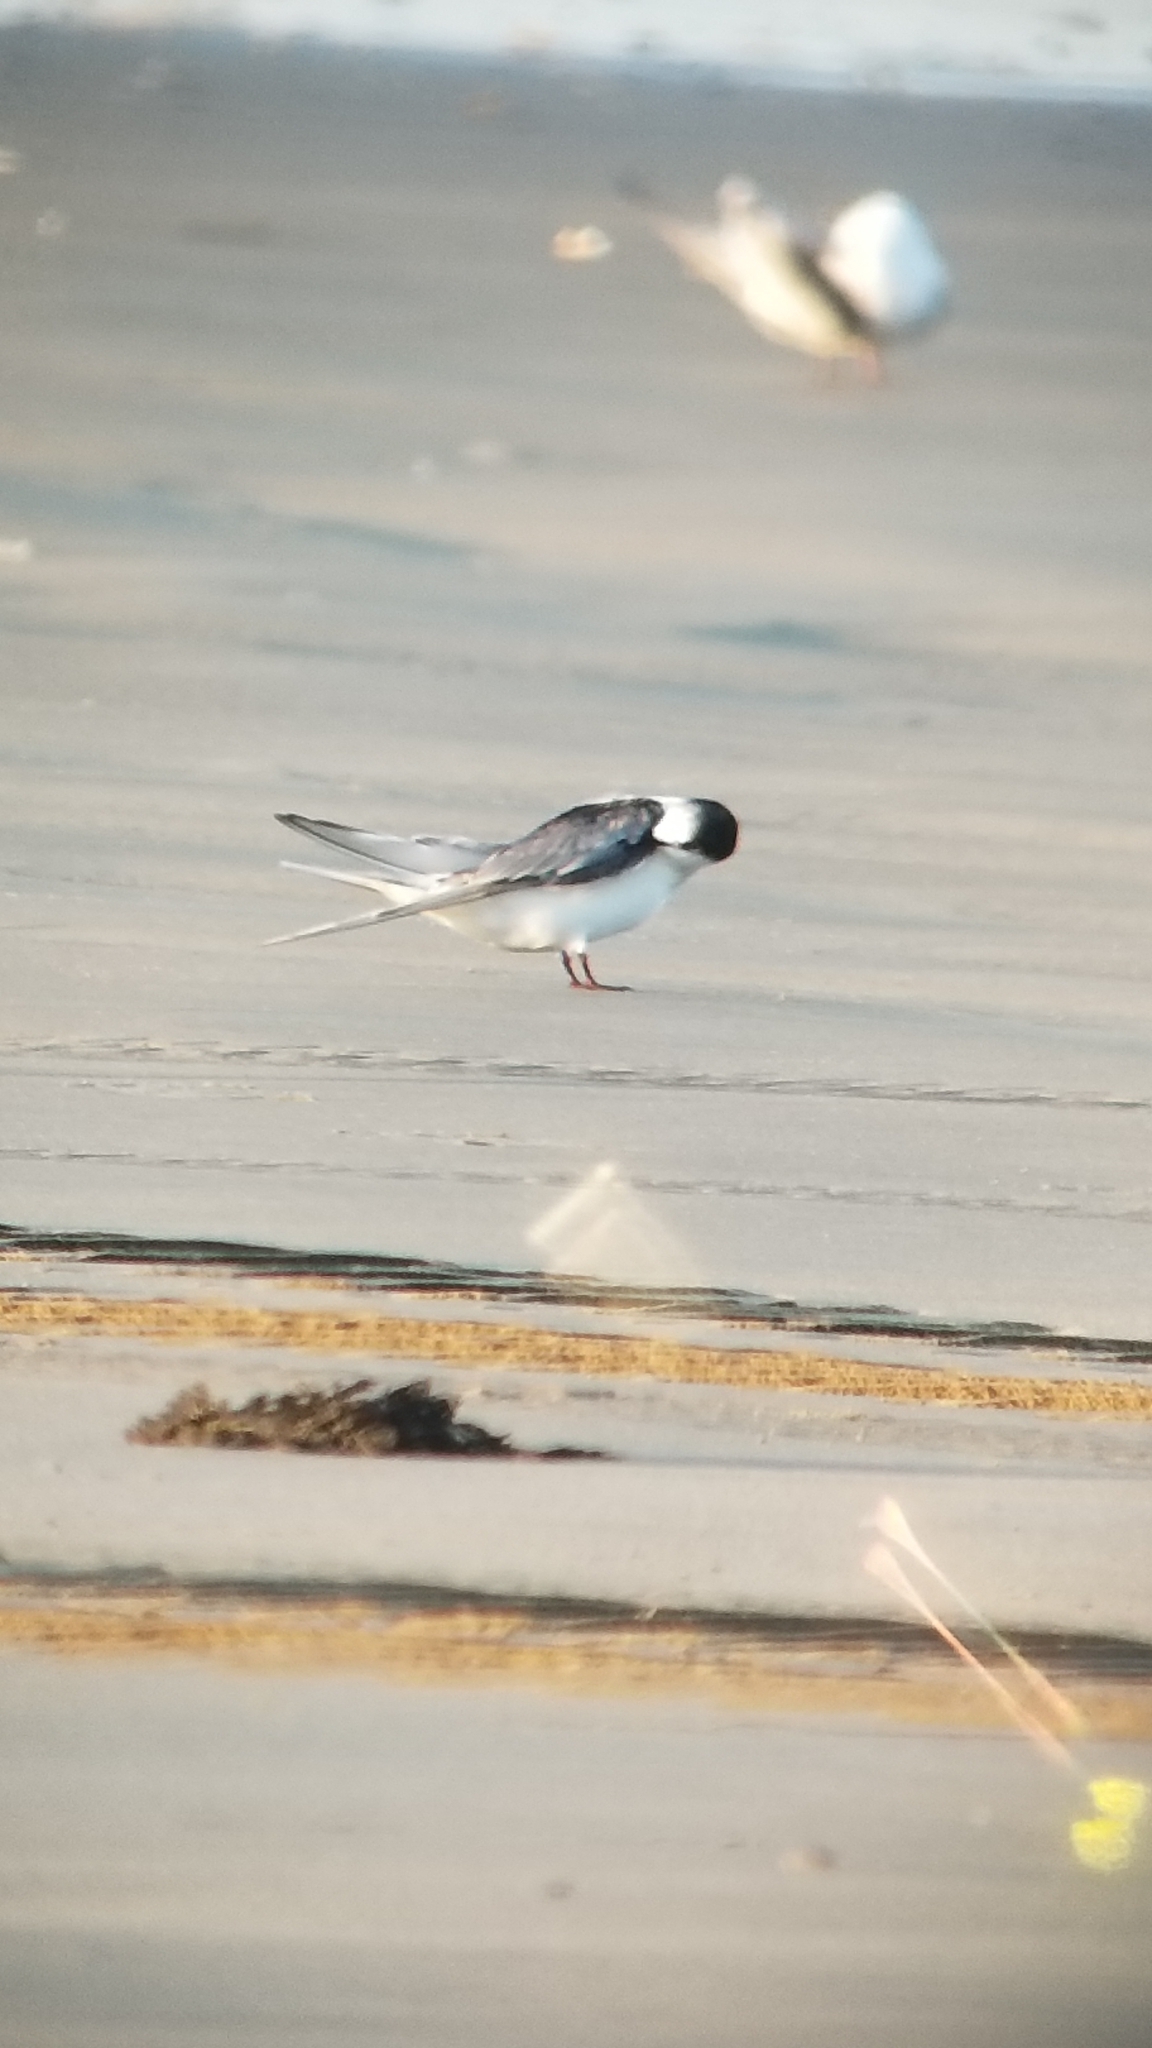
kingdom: Animalia
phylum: Chordata
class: Aves
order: Charadriiformes
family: Laridae
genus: Sterna
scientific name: Sterna paradisaea
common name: Arctic tern
